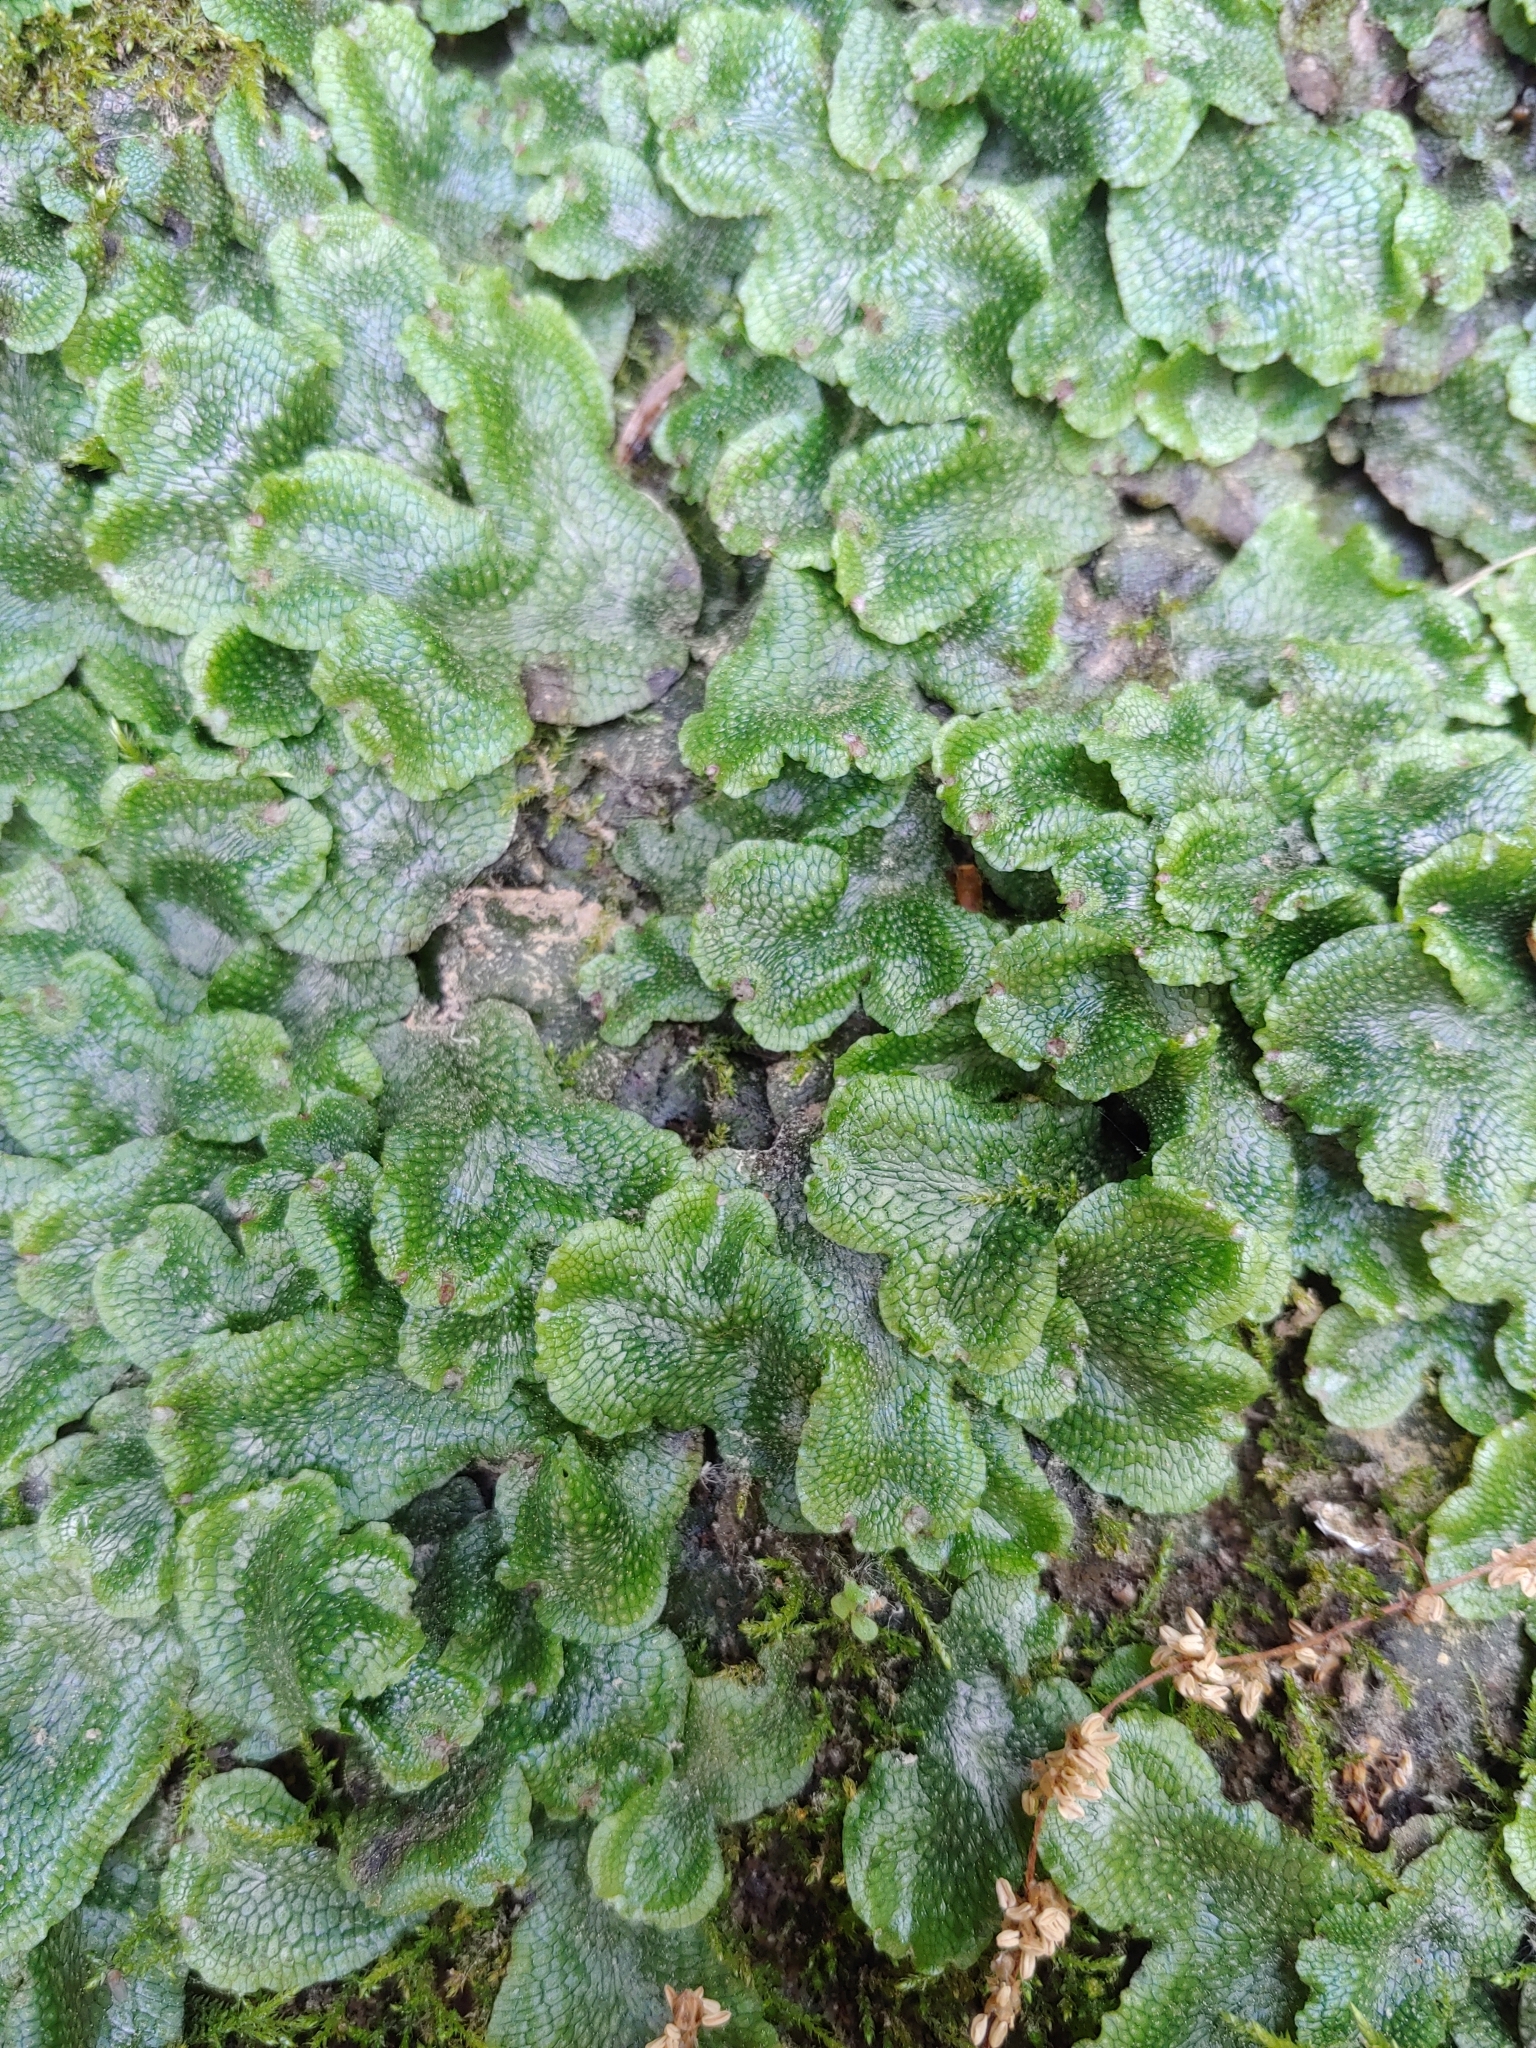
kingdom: Plantae
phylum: Marchantiophyta
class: Marchantiopsida
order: Marchantiales
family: Conocephalaceae
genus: Conocephalum
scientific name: Conocephalum salebrosum
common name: Cat-tongue liverwort
